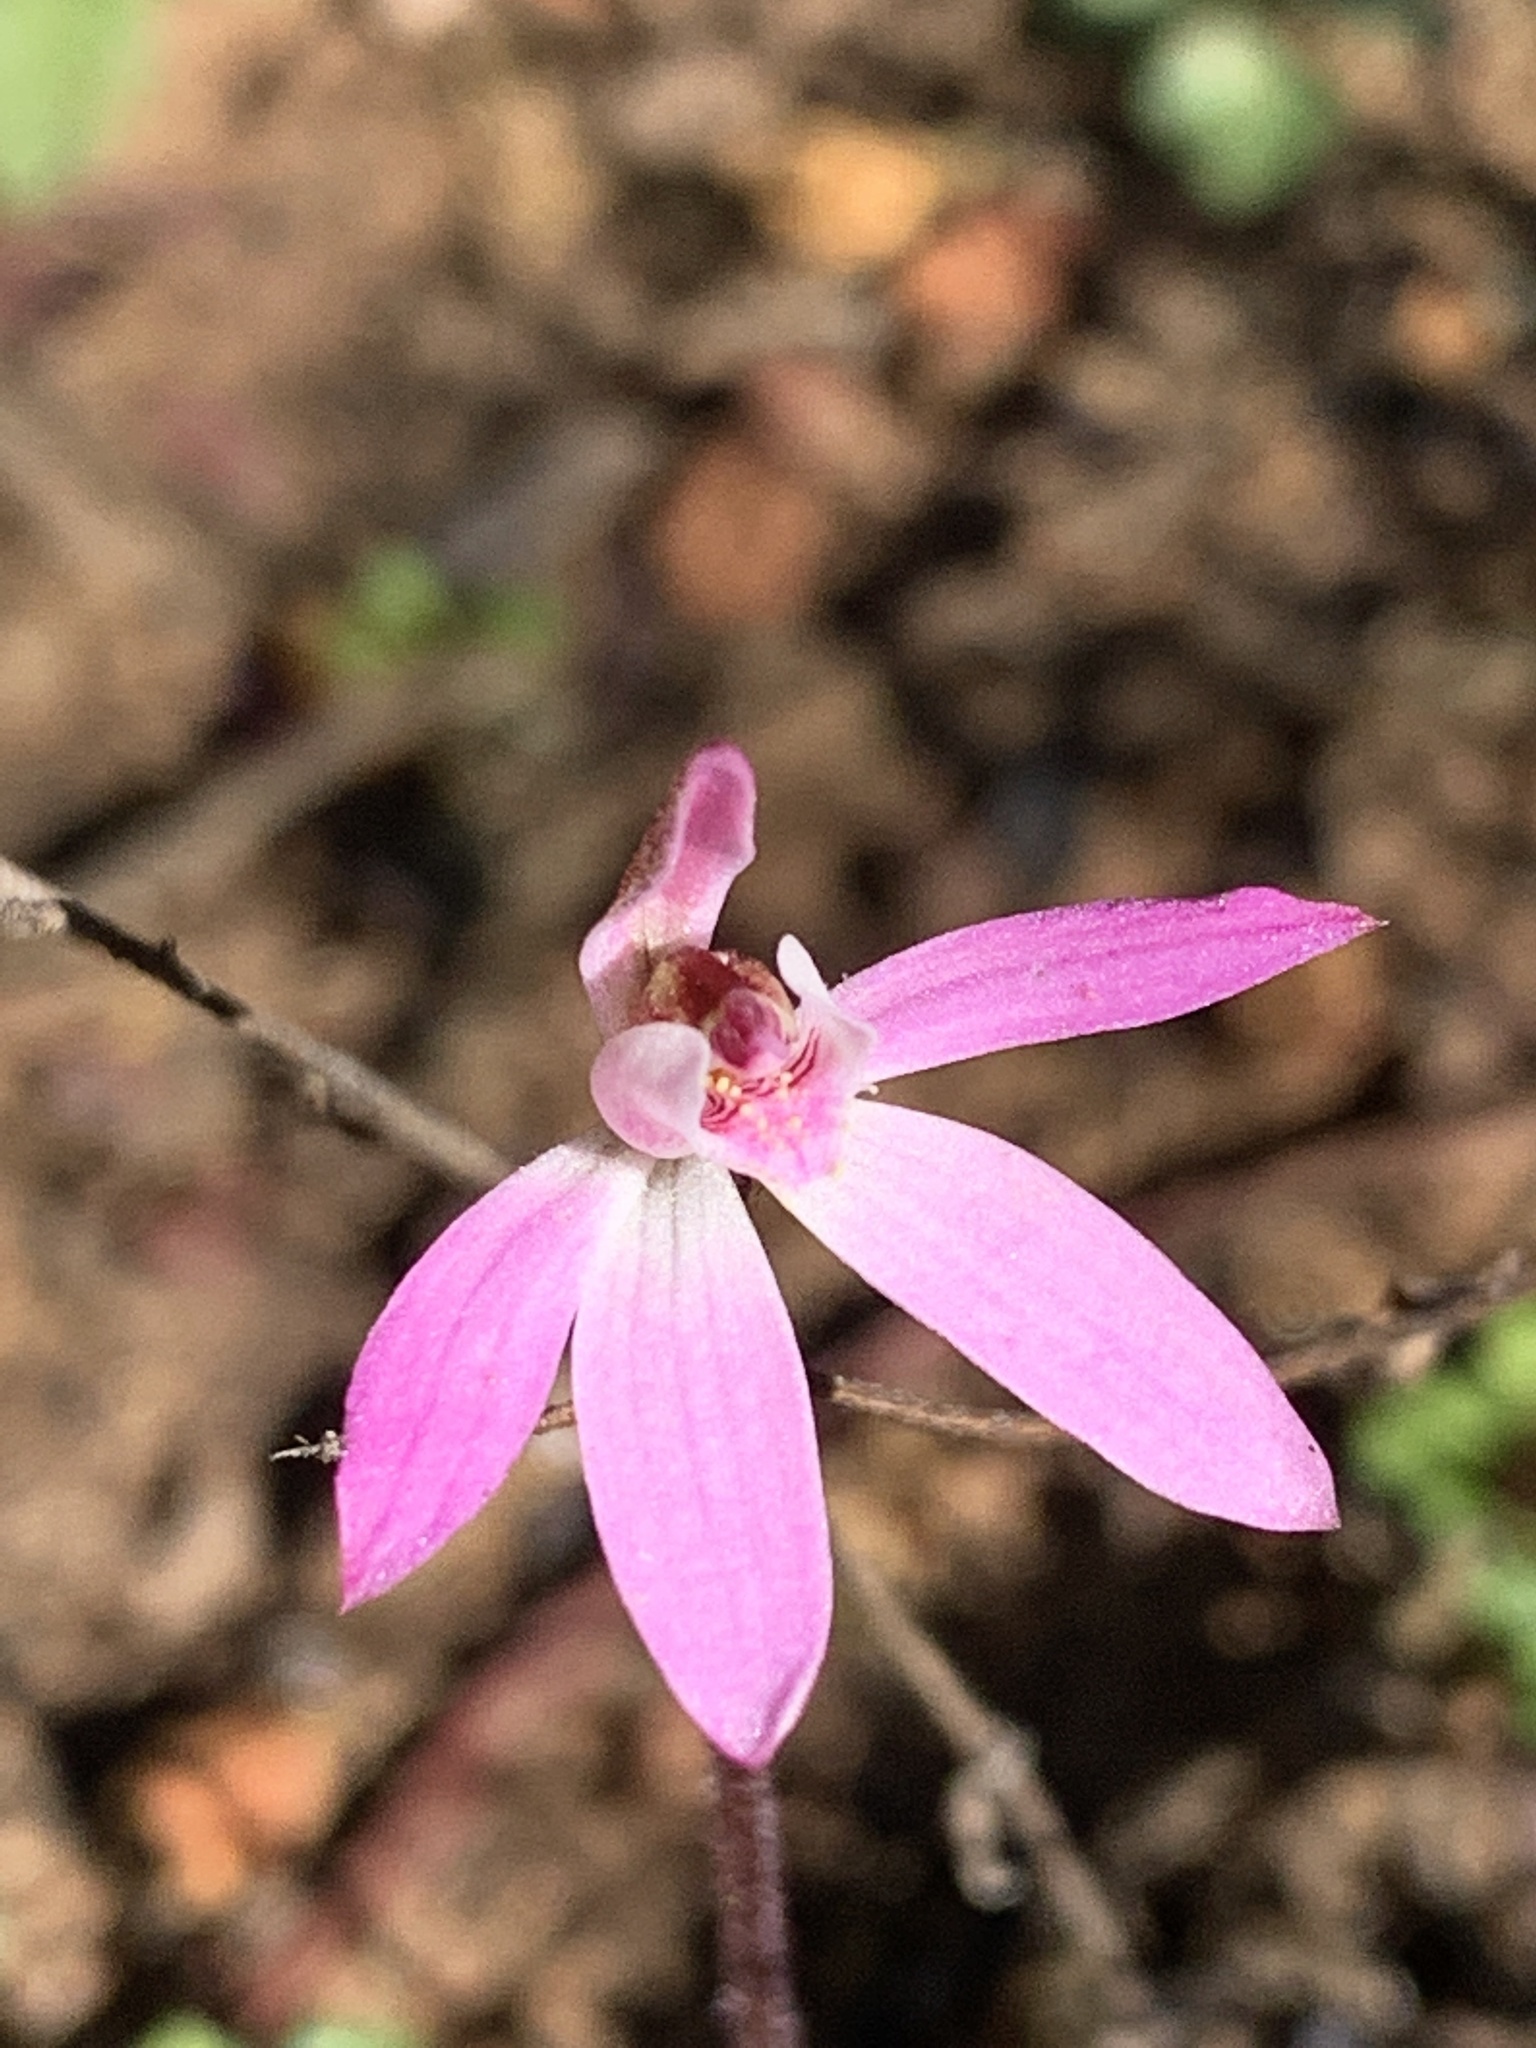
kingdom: Plantae
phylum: Tracheophyta
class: Liliopsida
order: Asparagales
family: Orchidaceae
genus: Caladenia
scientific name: Caladenia fuscata
